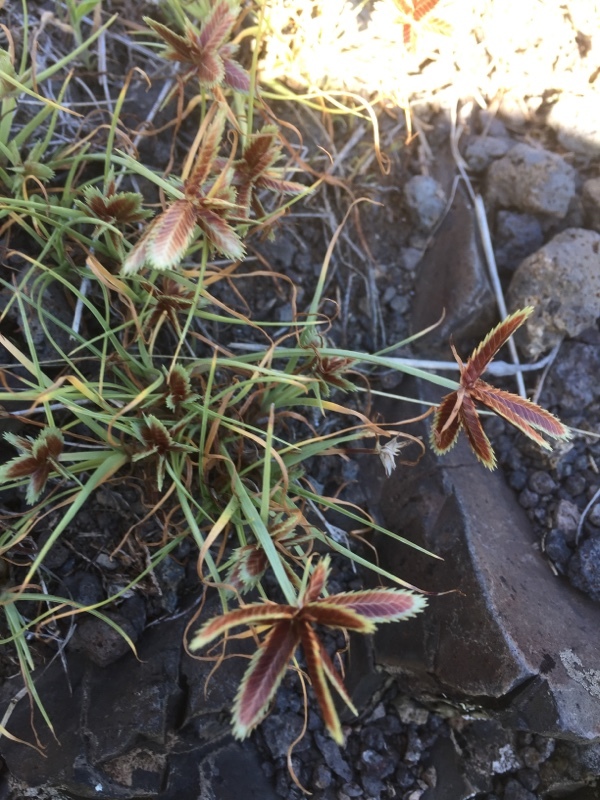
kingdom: Plantae
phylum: Tracheophyta
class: Liliopsida
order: Poales
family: Cyperaceae
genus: Cyperus
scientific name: Cyperus rubicundus
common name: Coco-grass
